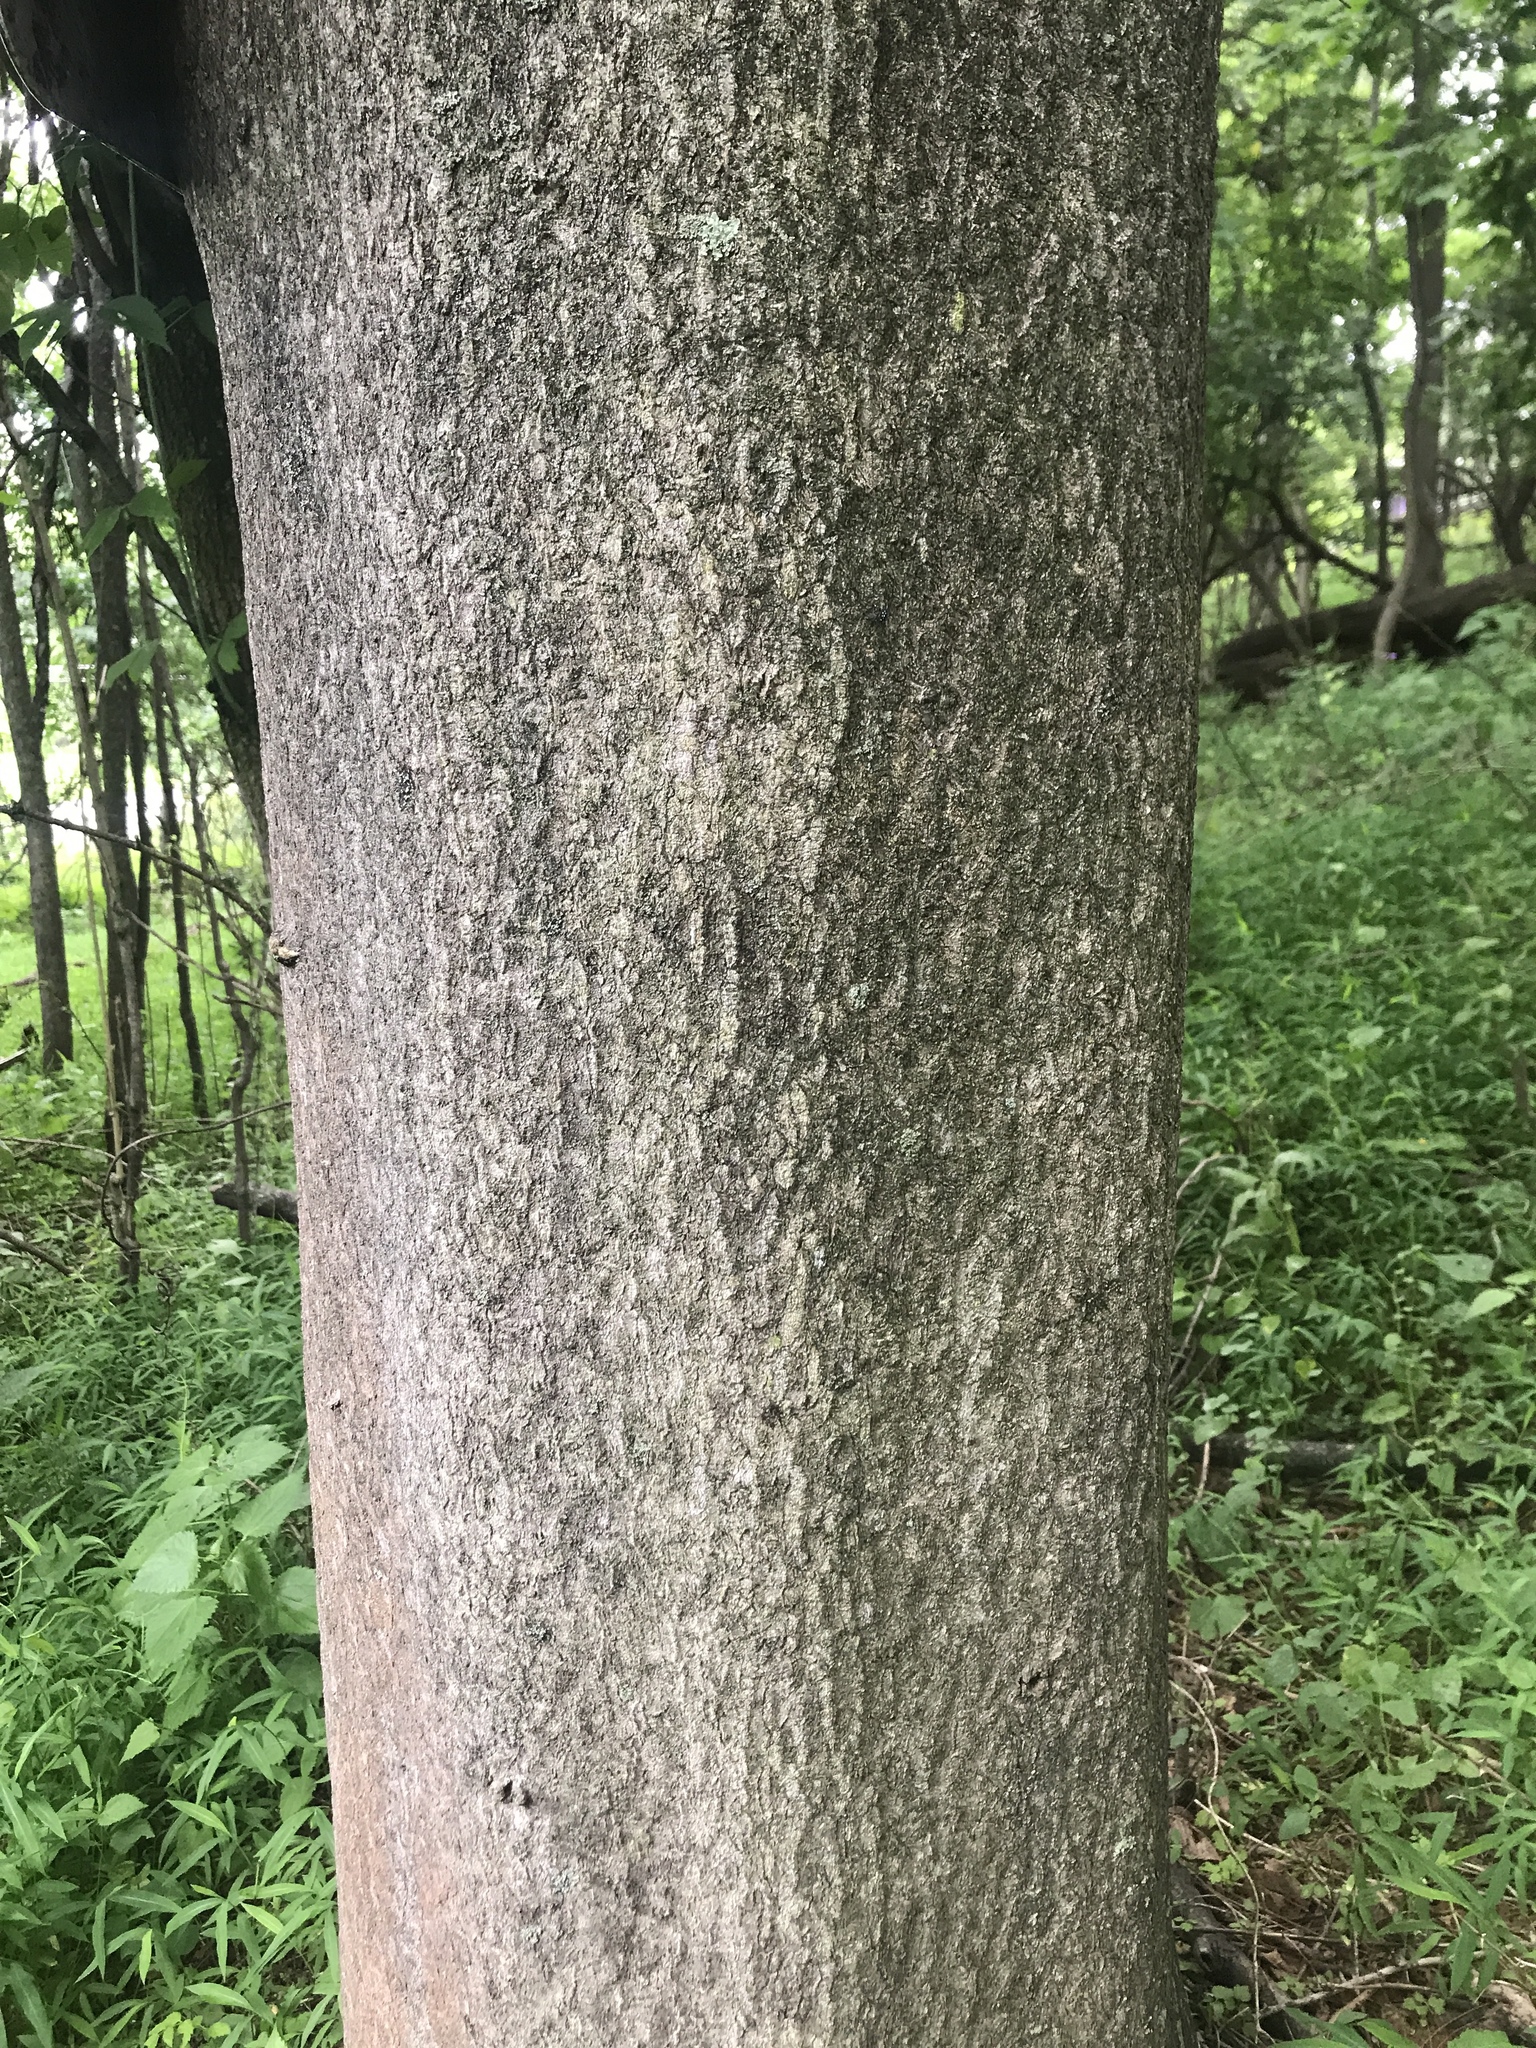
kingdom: Plantae
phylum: Tracheophyta
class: Magnoliopsida
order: Sapindales
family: Simaroubaceae
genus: Ailanthus
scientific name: Ailanthus altissima
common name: Tree-of-heaven
